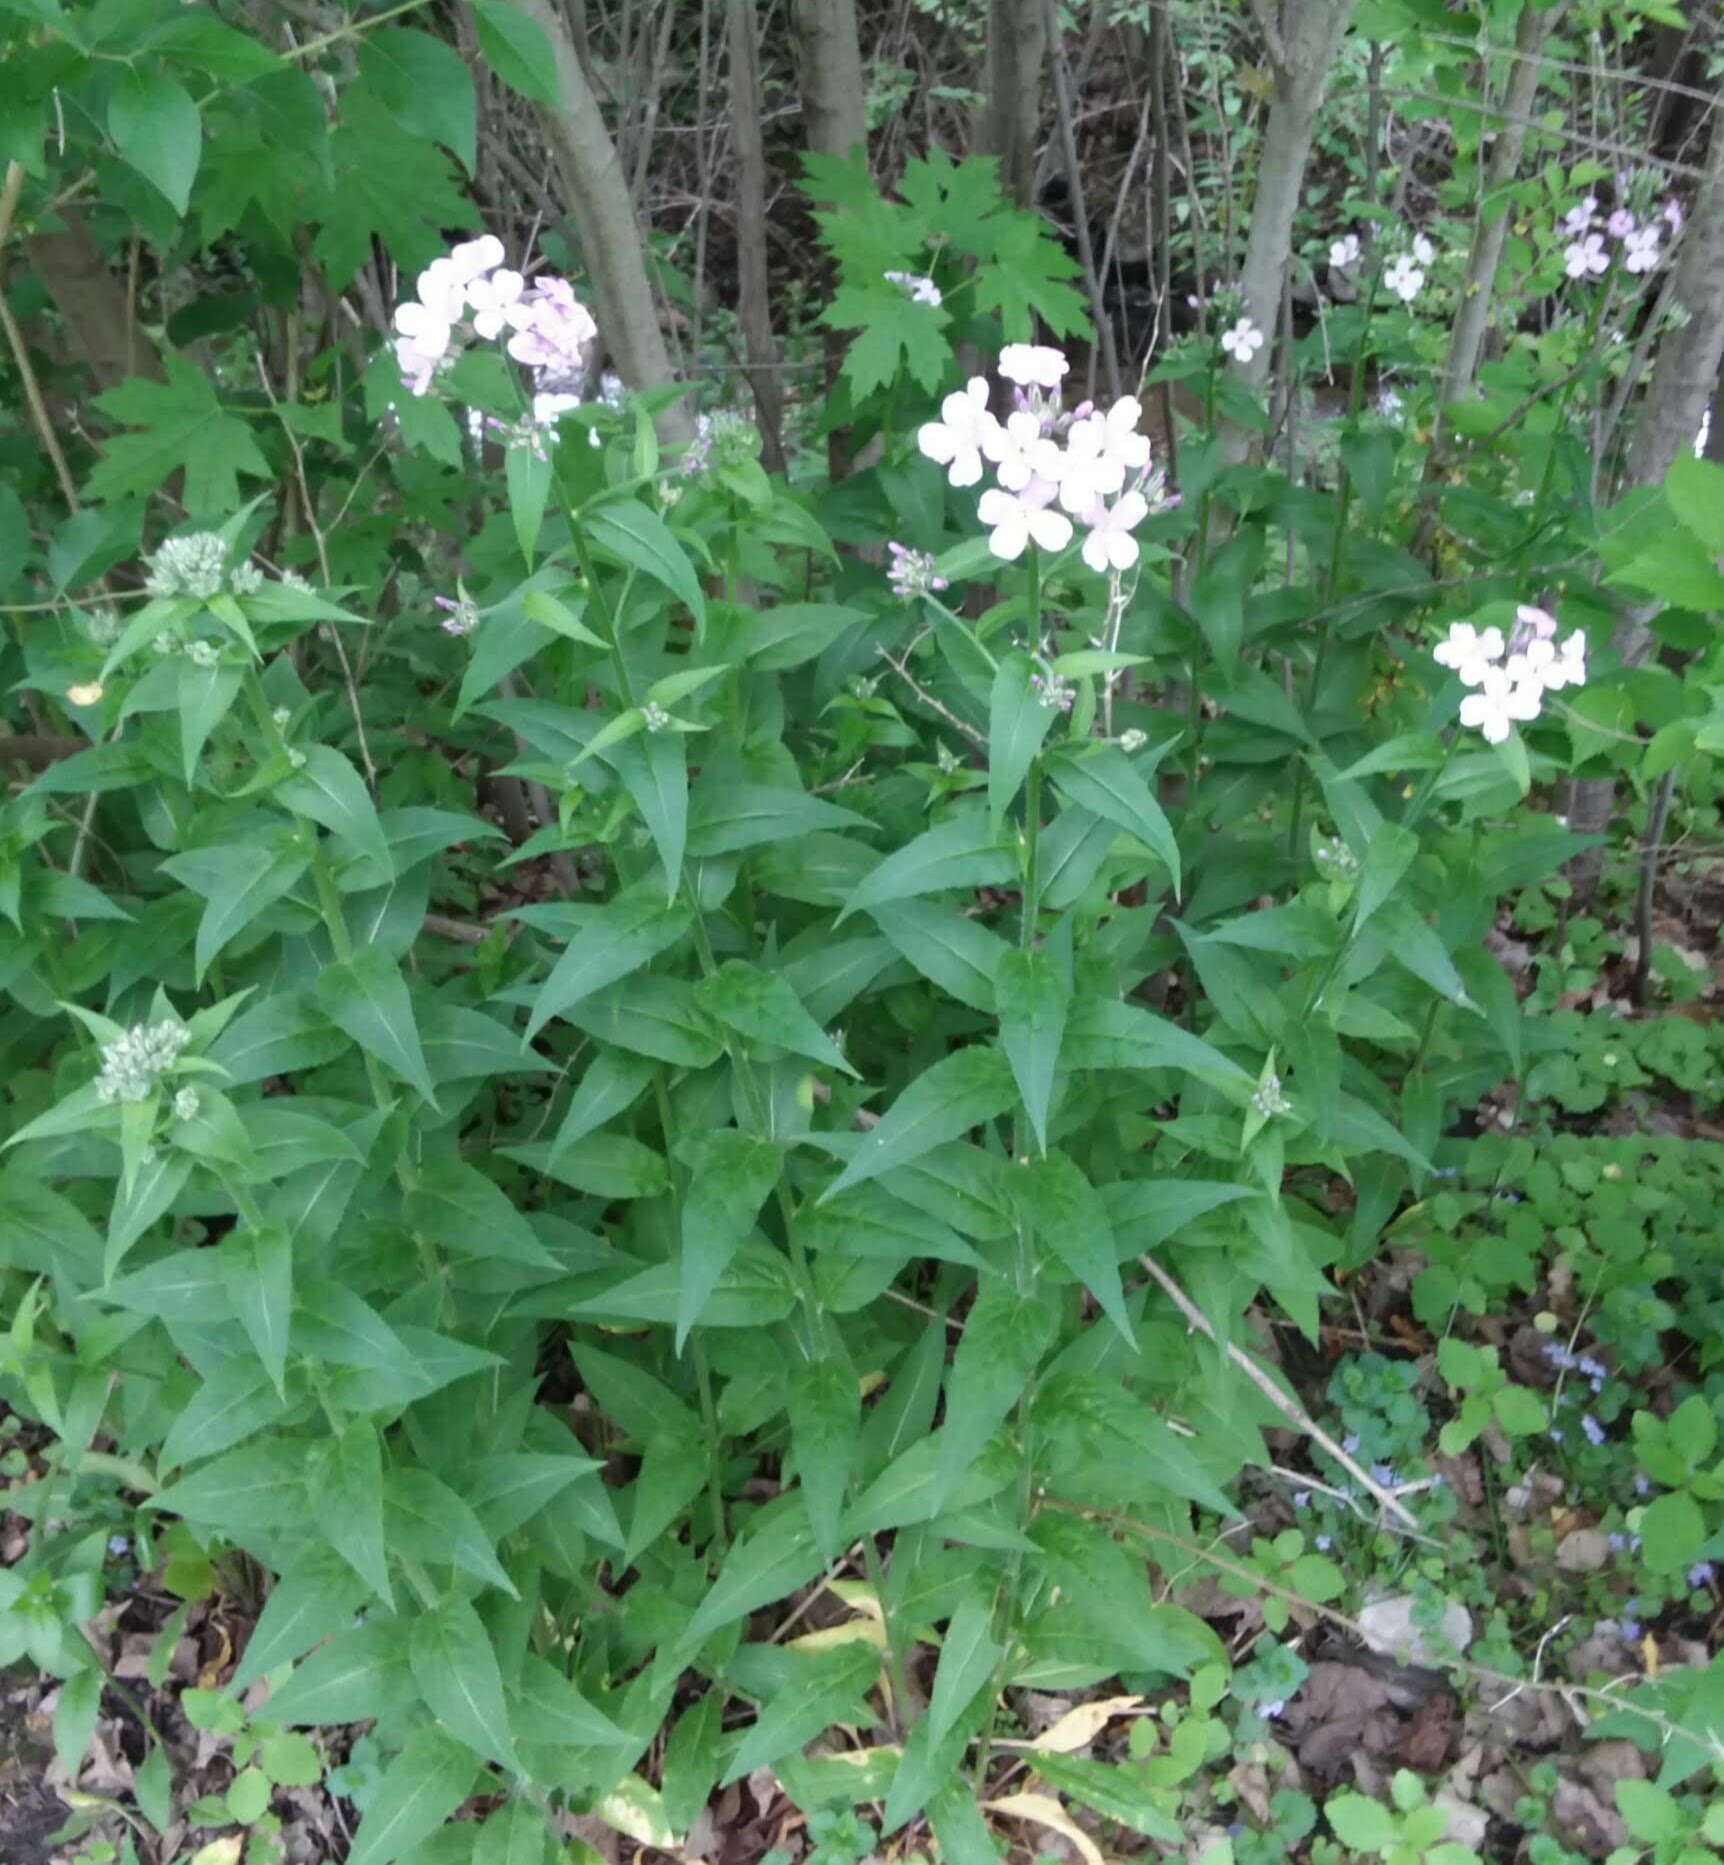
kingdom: Plantae
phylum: Tracheophyta
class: Magnoliopsida
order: Brassicales
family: Brassicaceae
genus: Hesperis
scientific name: Hesperis matronalis
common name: Dame's-violet
